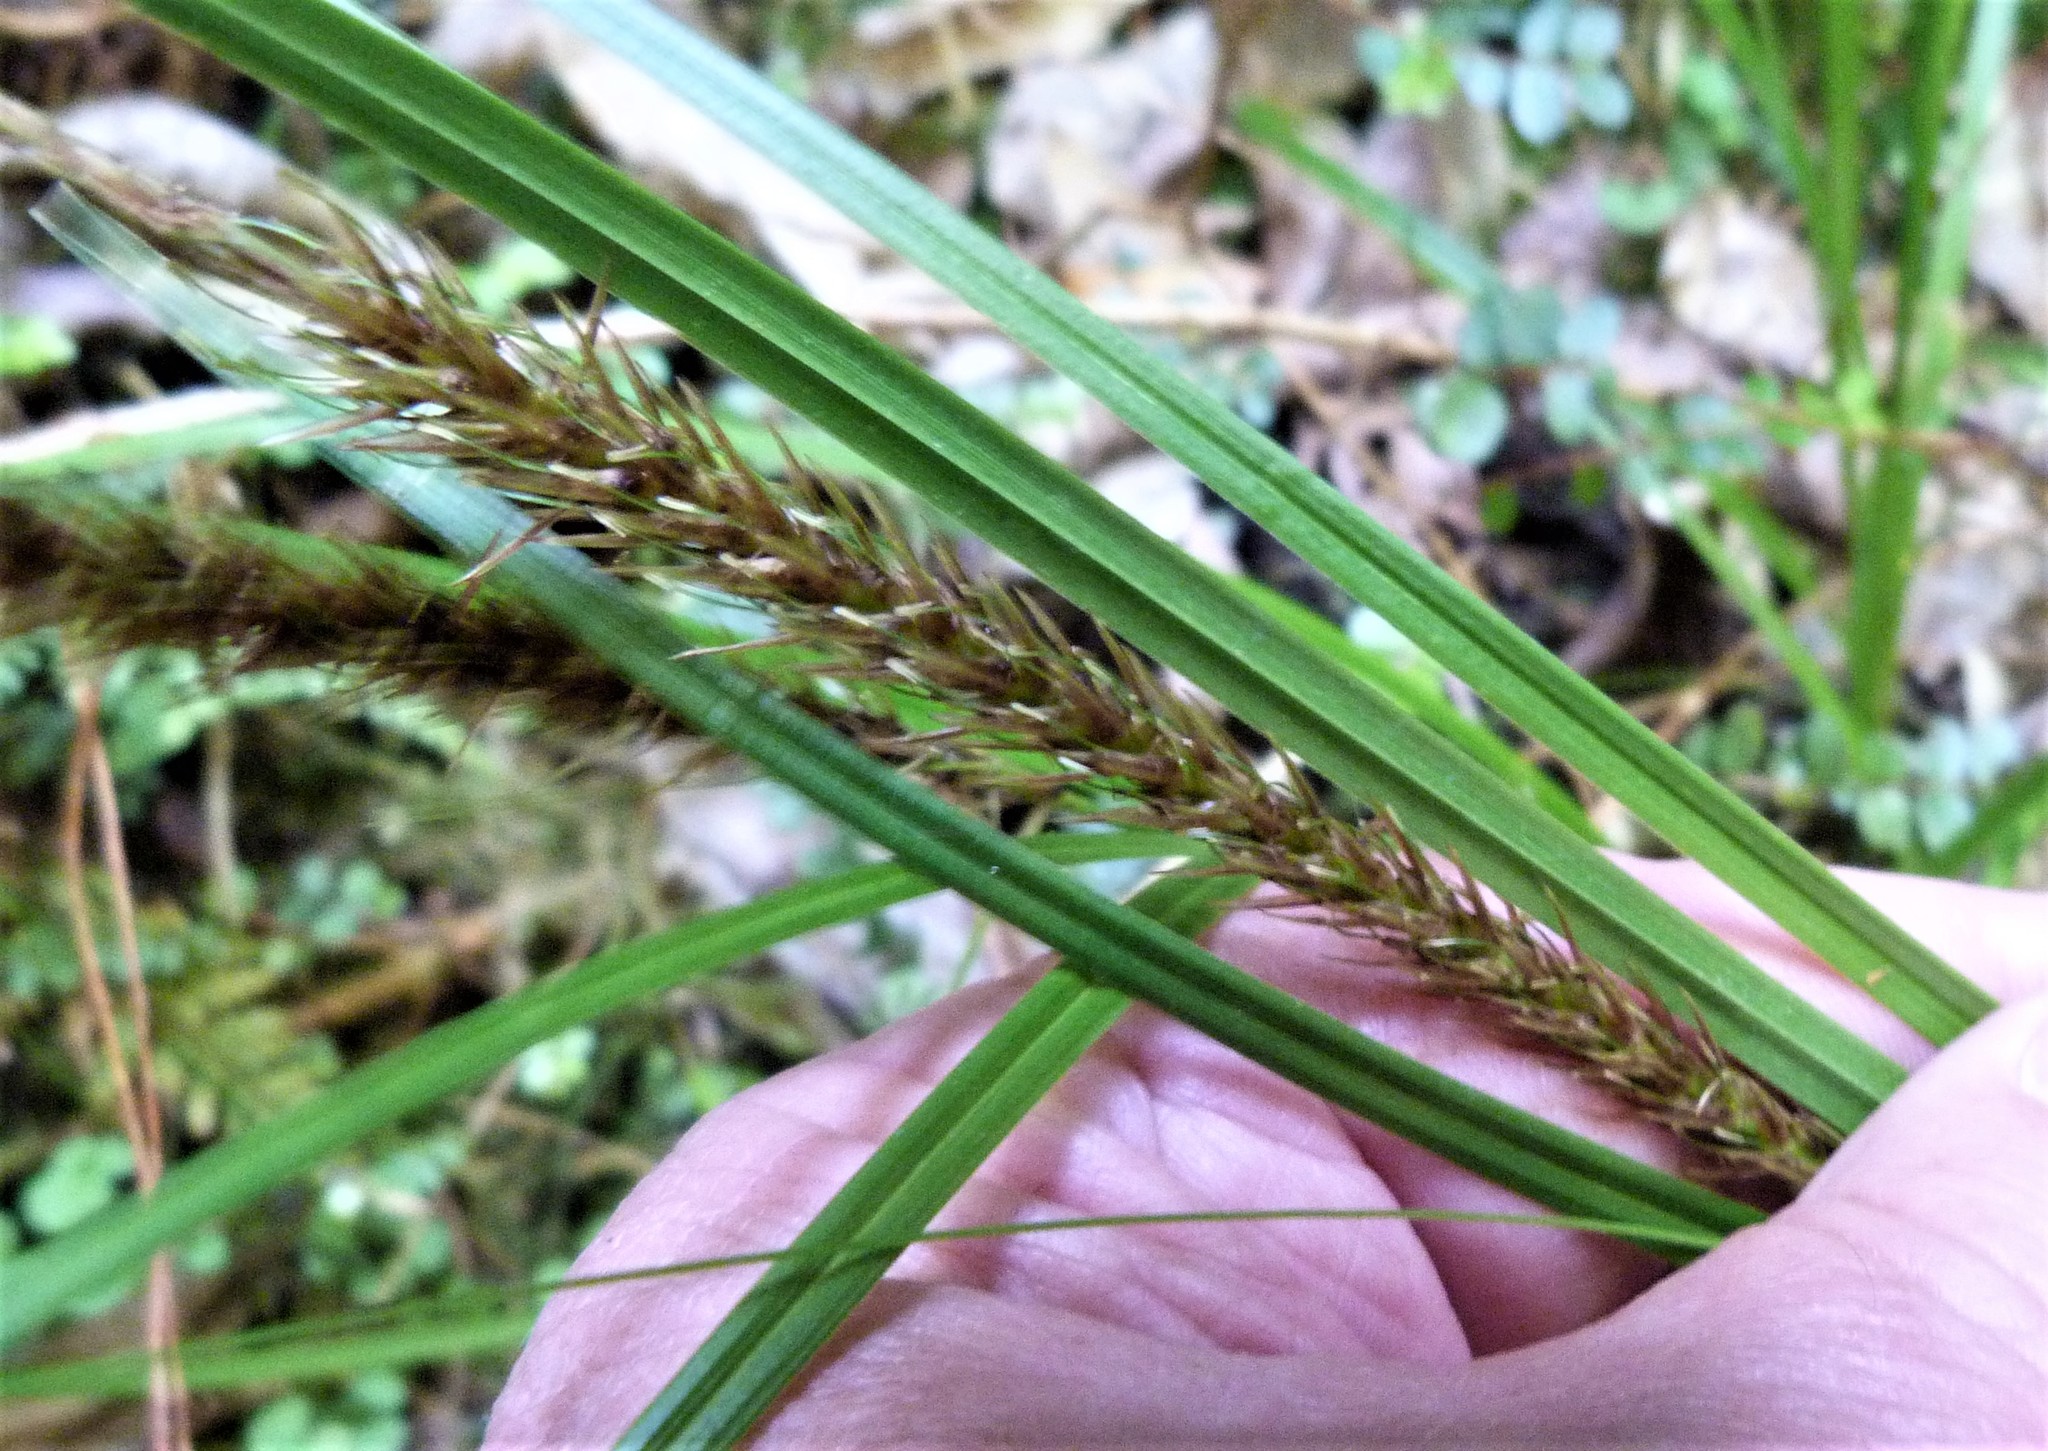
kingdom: Plantae
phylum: Tracheophyta
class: Liliopsida
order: Poales
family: Cyperaceae
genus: Carex
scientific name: Carex uncinata
